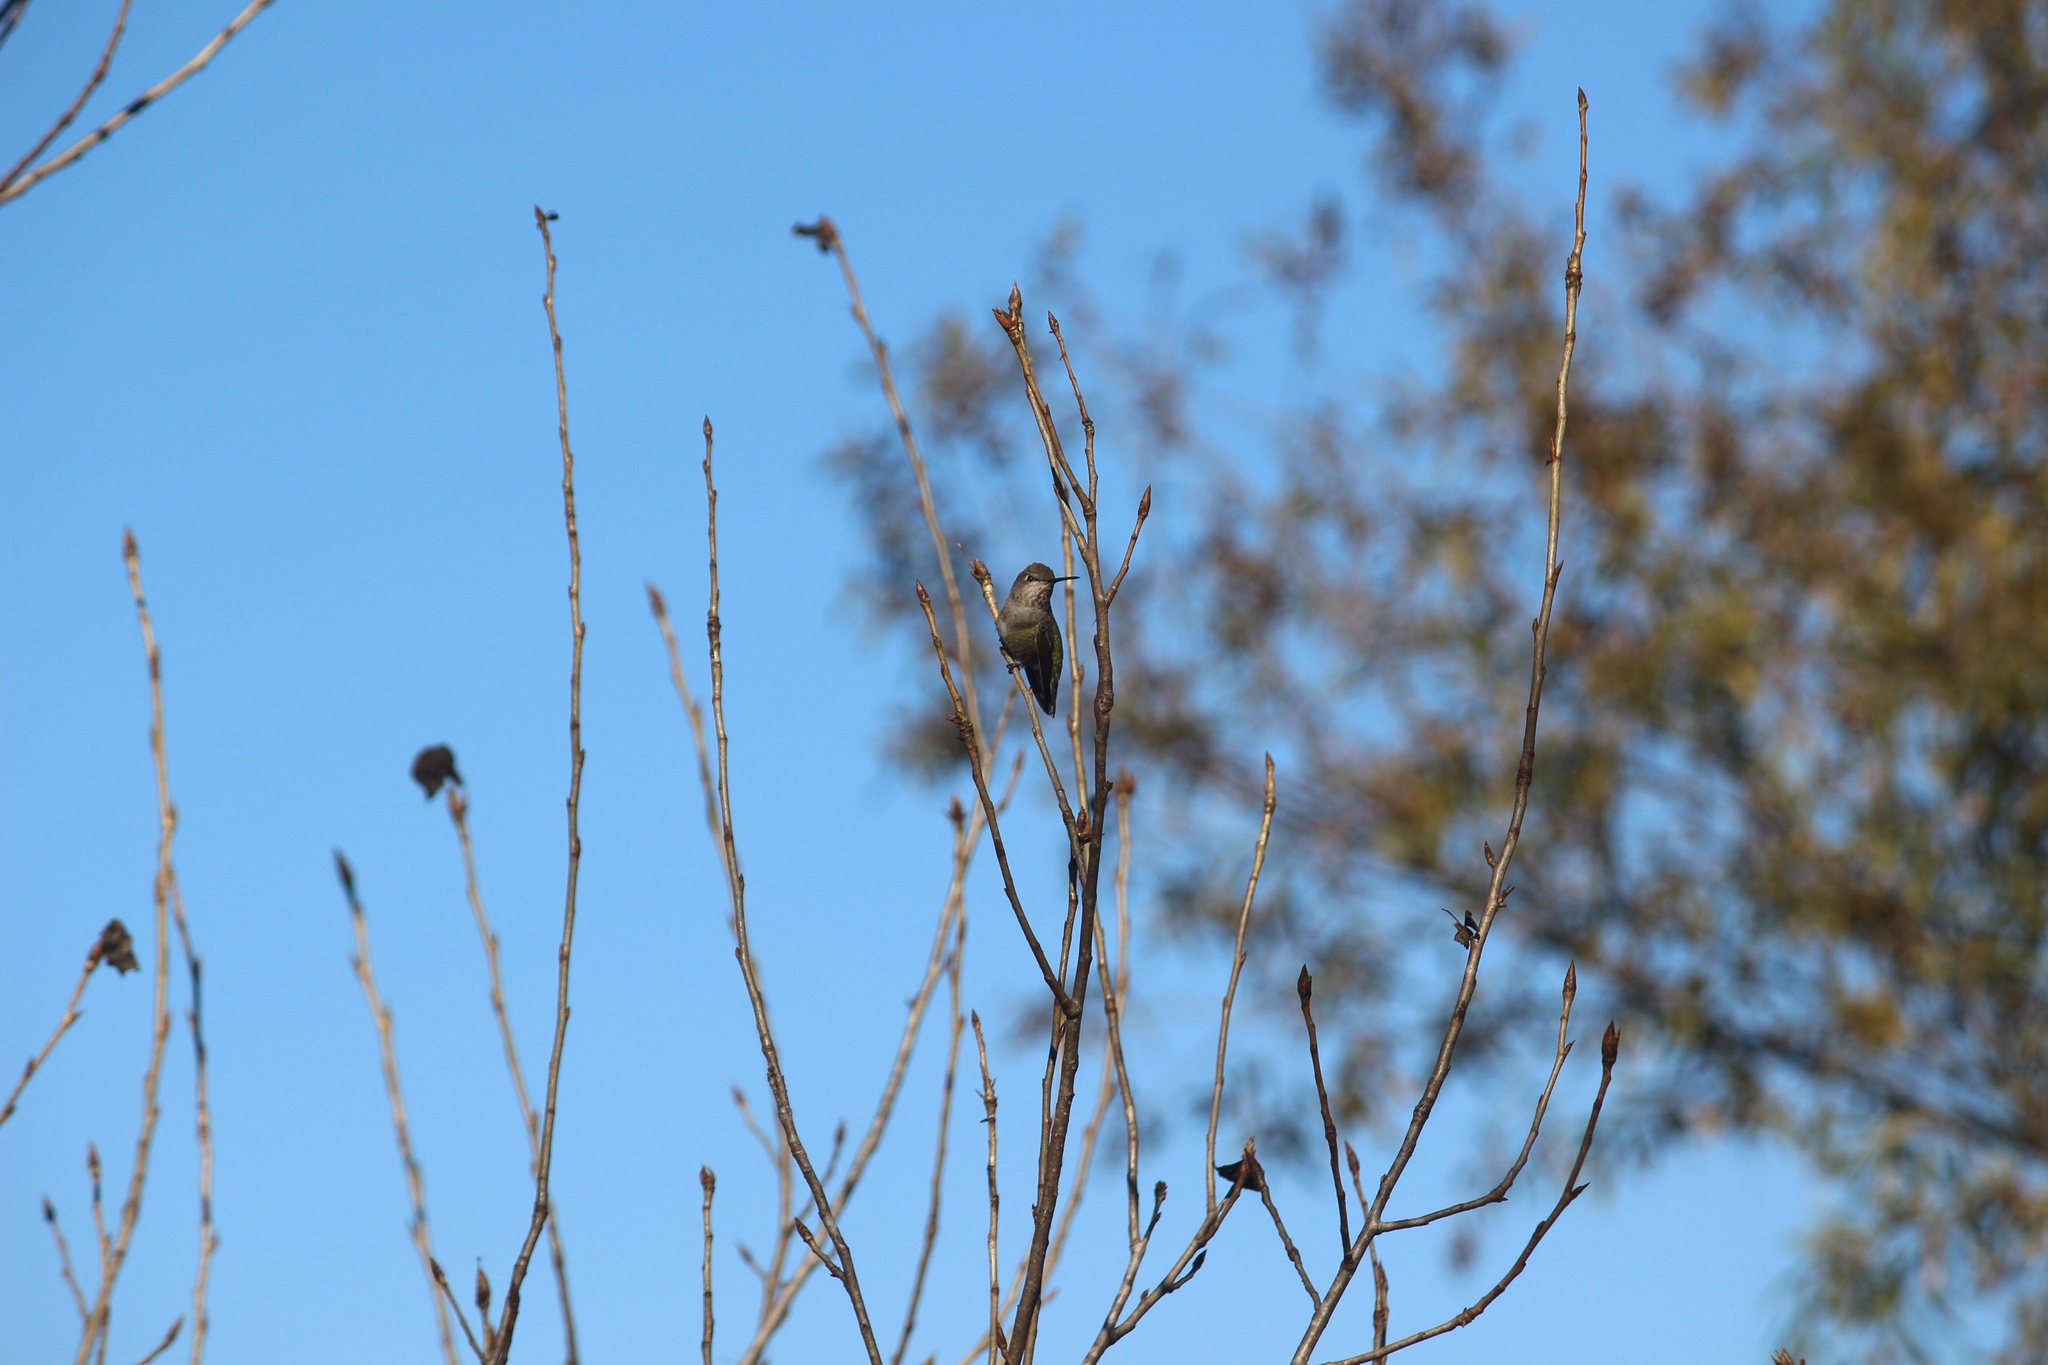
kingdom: Animalia
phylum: Chordata
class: Aves
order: Apodiformes
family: Trochilidae
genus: Calypte
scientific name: Calypte anna
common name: Anna's hummingbird
